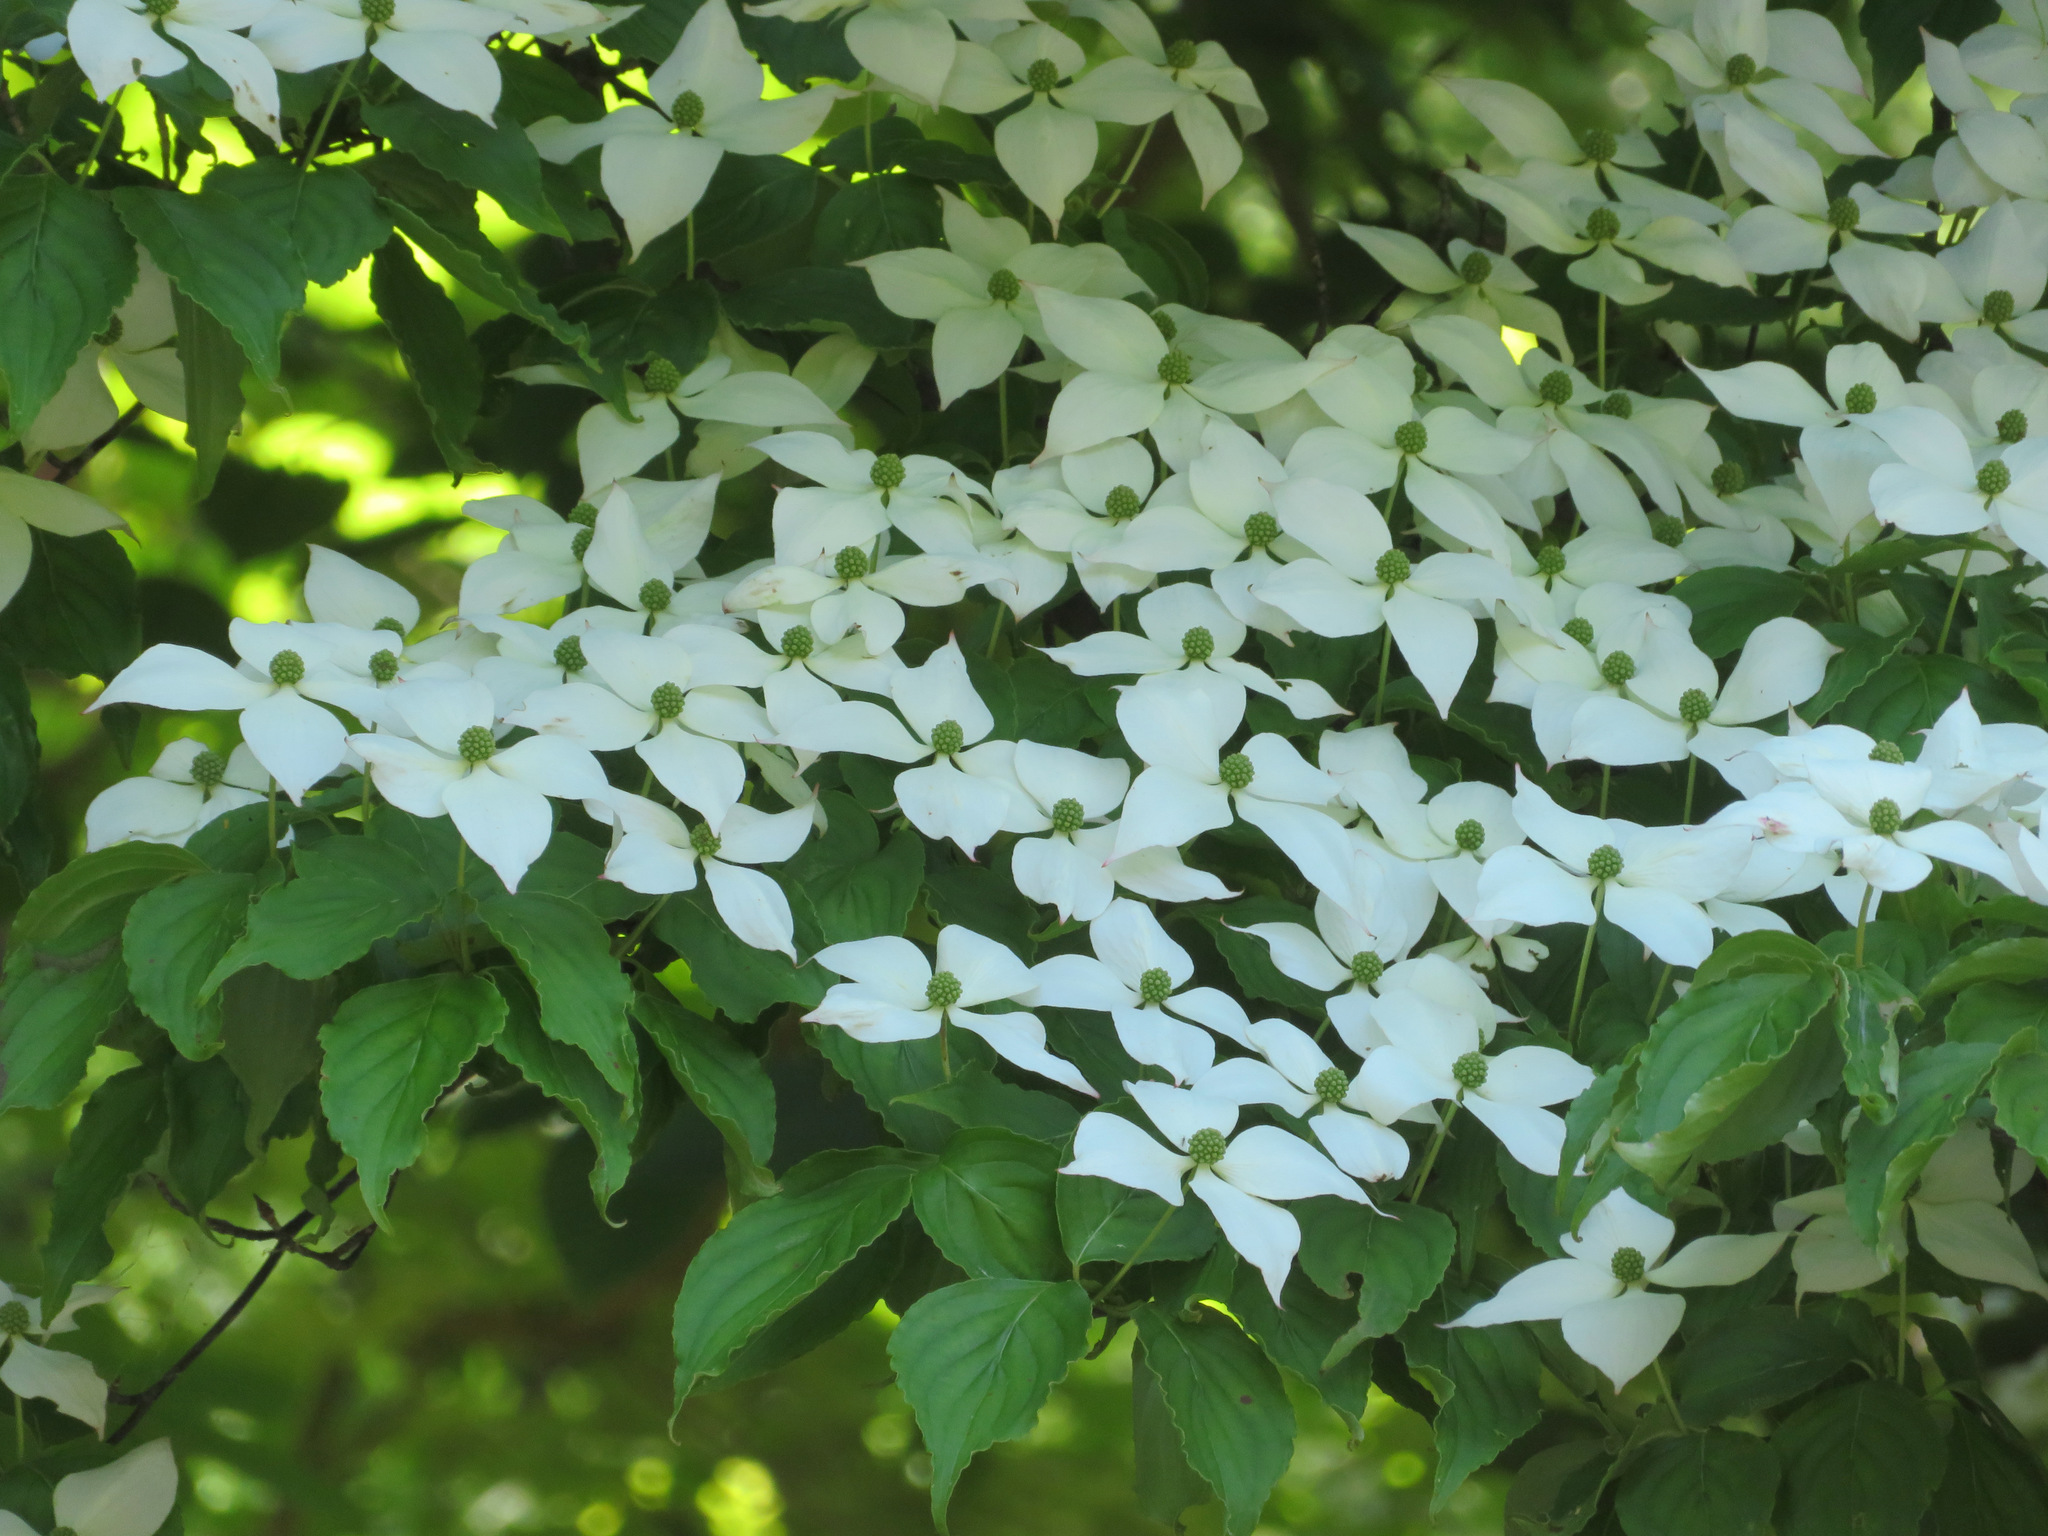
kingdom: Plantae
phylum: Tracheophyta
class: Magnoliopsida
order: Cornales
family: Cornaceae
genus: Cornus
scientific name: Cornus kousa
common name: Japanese dogwood
